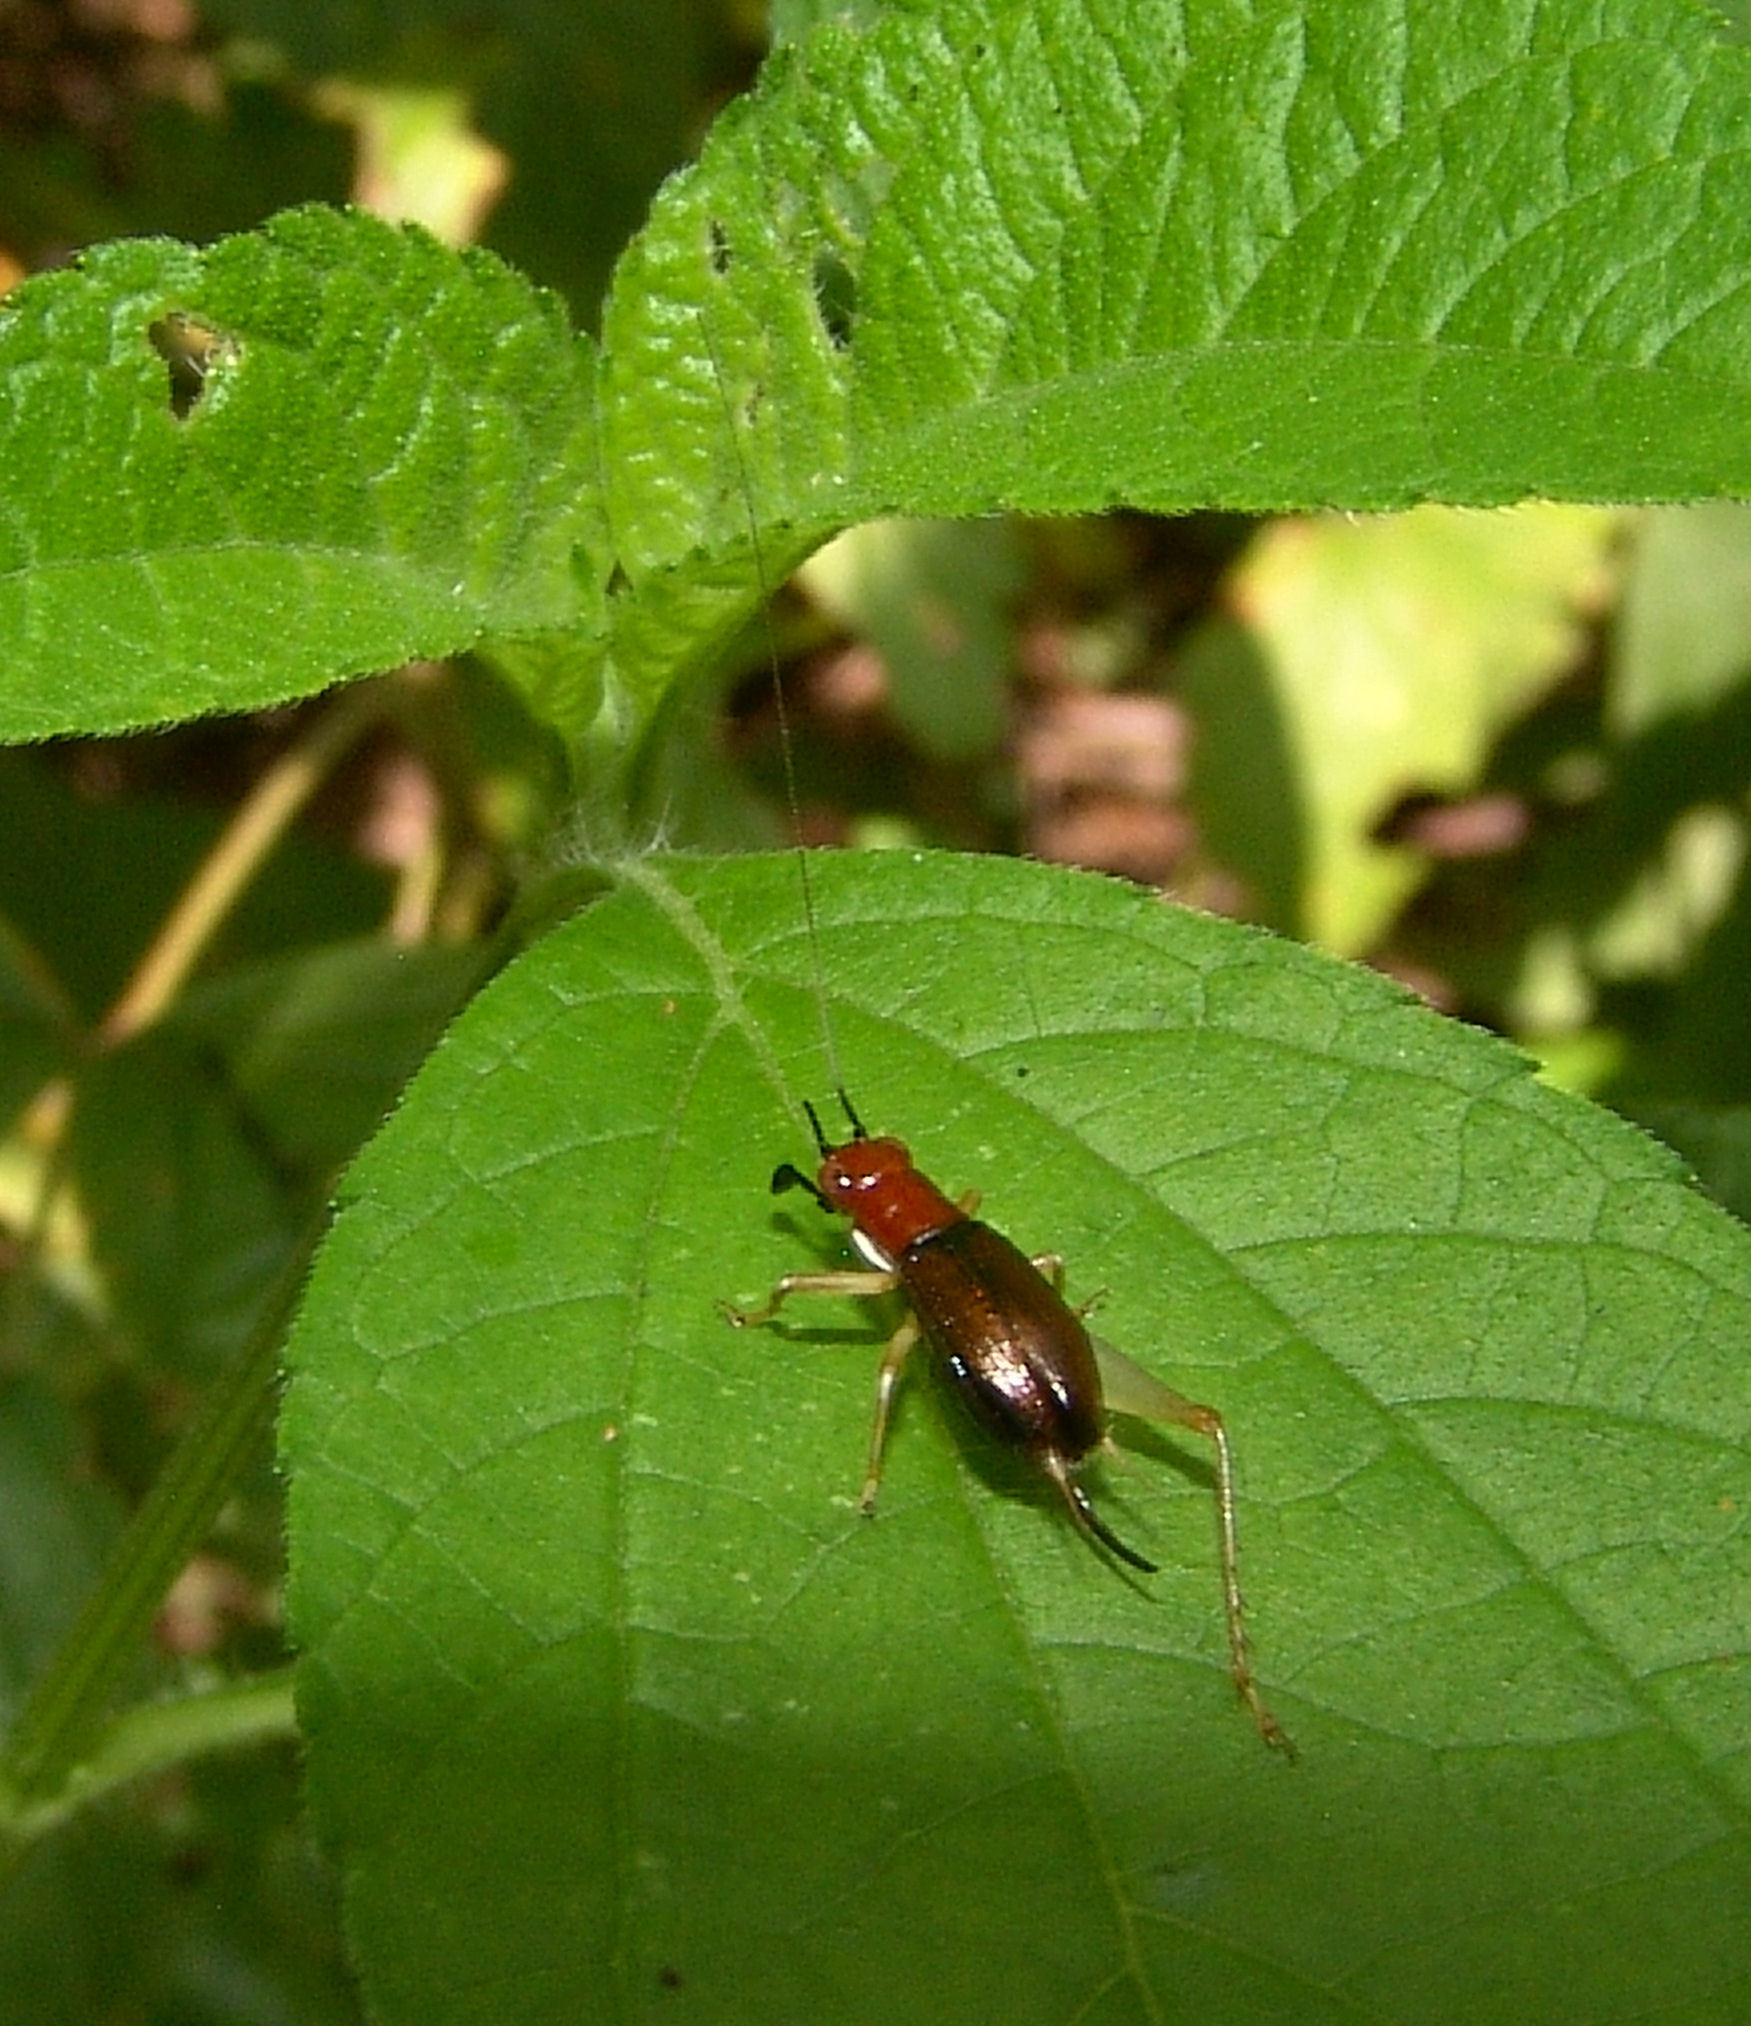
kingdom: Animalia
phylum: Arthropoda
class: Insecta
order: Orthoptera
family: Trigonidiidae
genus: Phyllopalpus
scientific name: Phyllopalpus pulchellus
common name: Handsome trig
